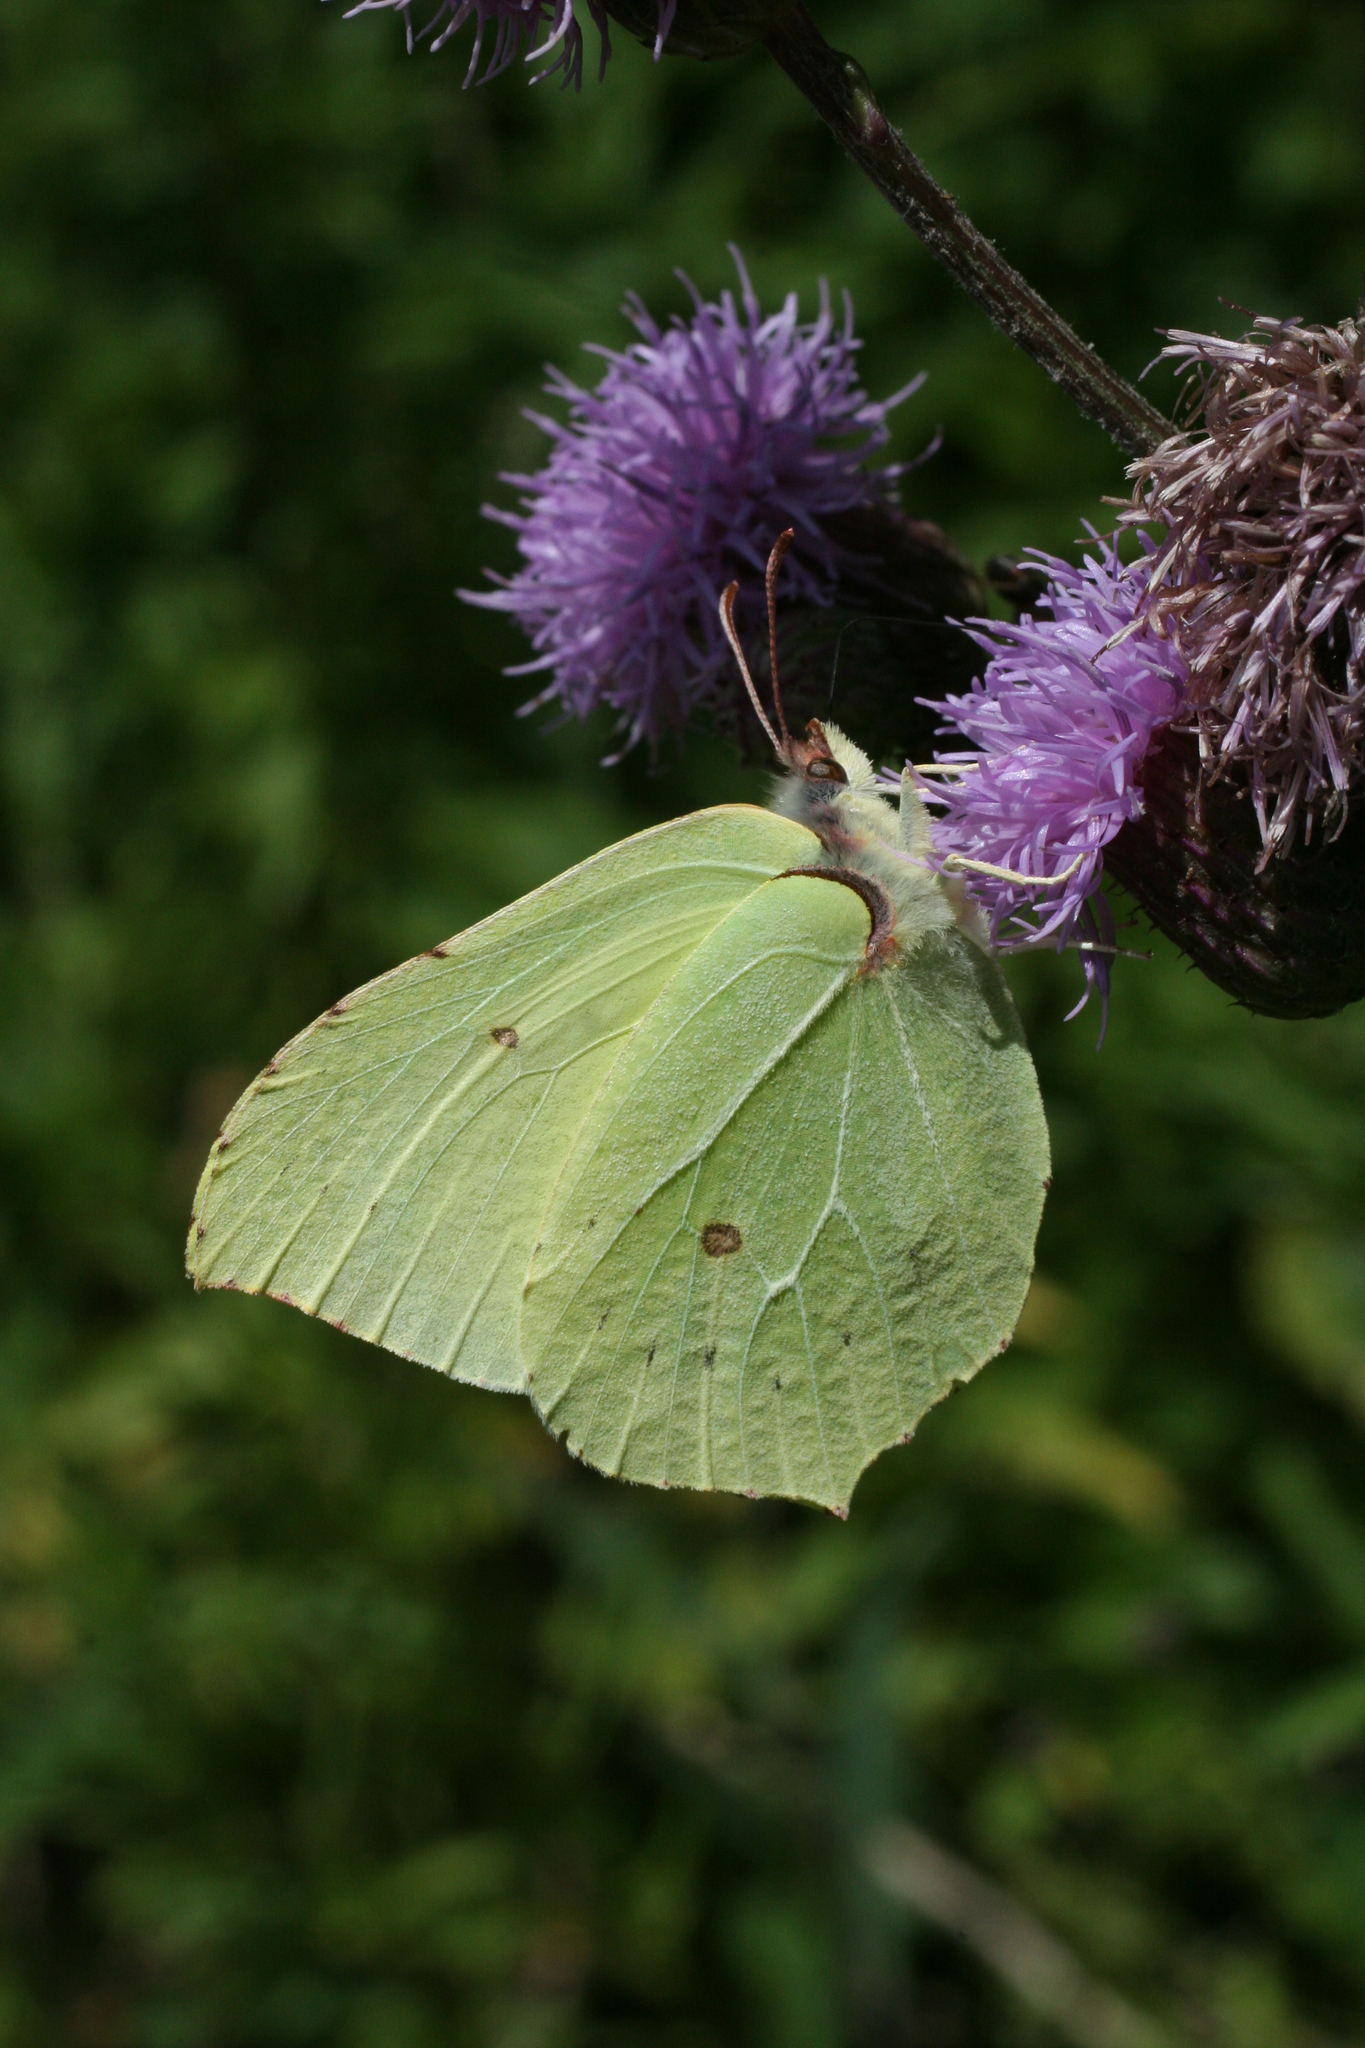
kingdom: Animalia
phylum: Arthropoda
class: Insecta
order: Lepidoptera
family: Pieridae
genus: Gonepteryx
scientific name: Gonepteryx rhamni
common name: Brimstone
